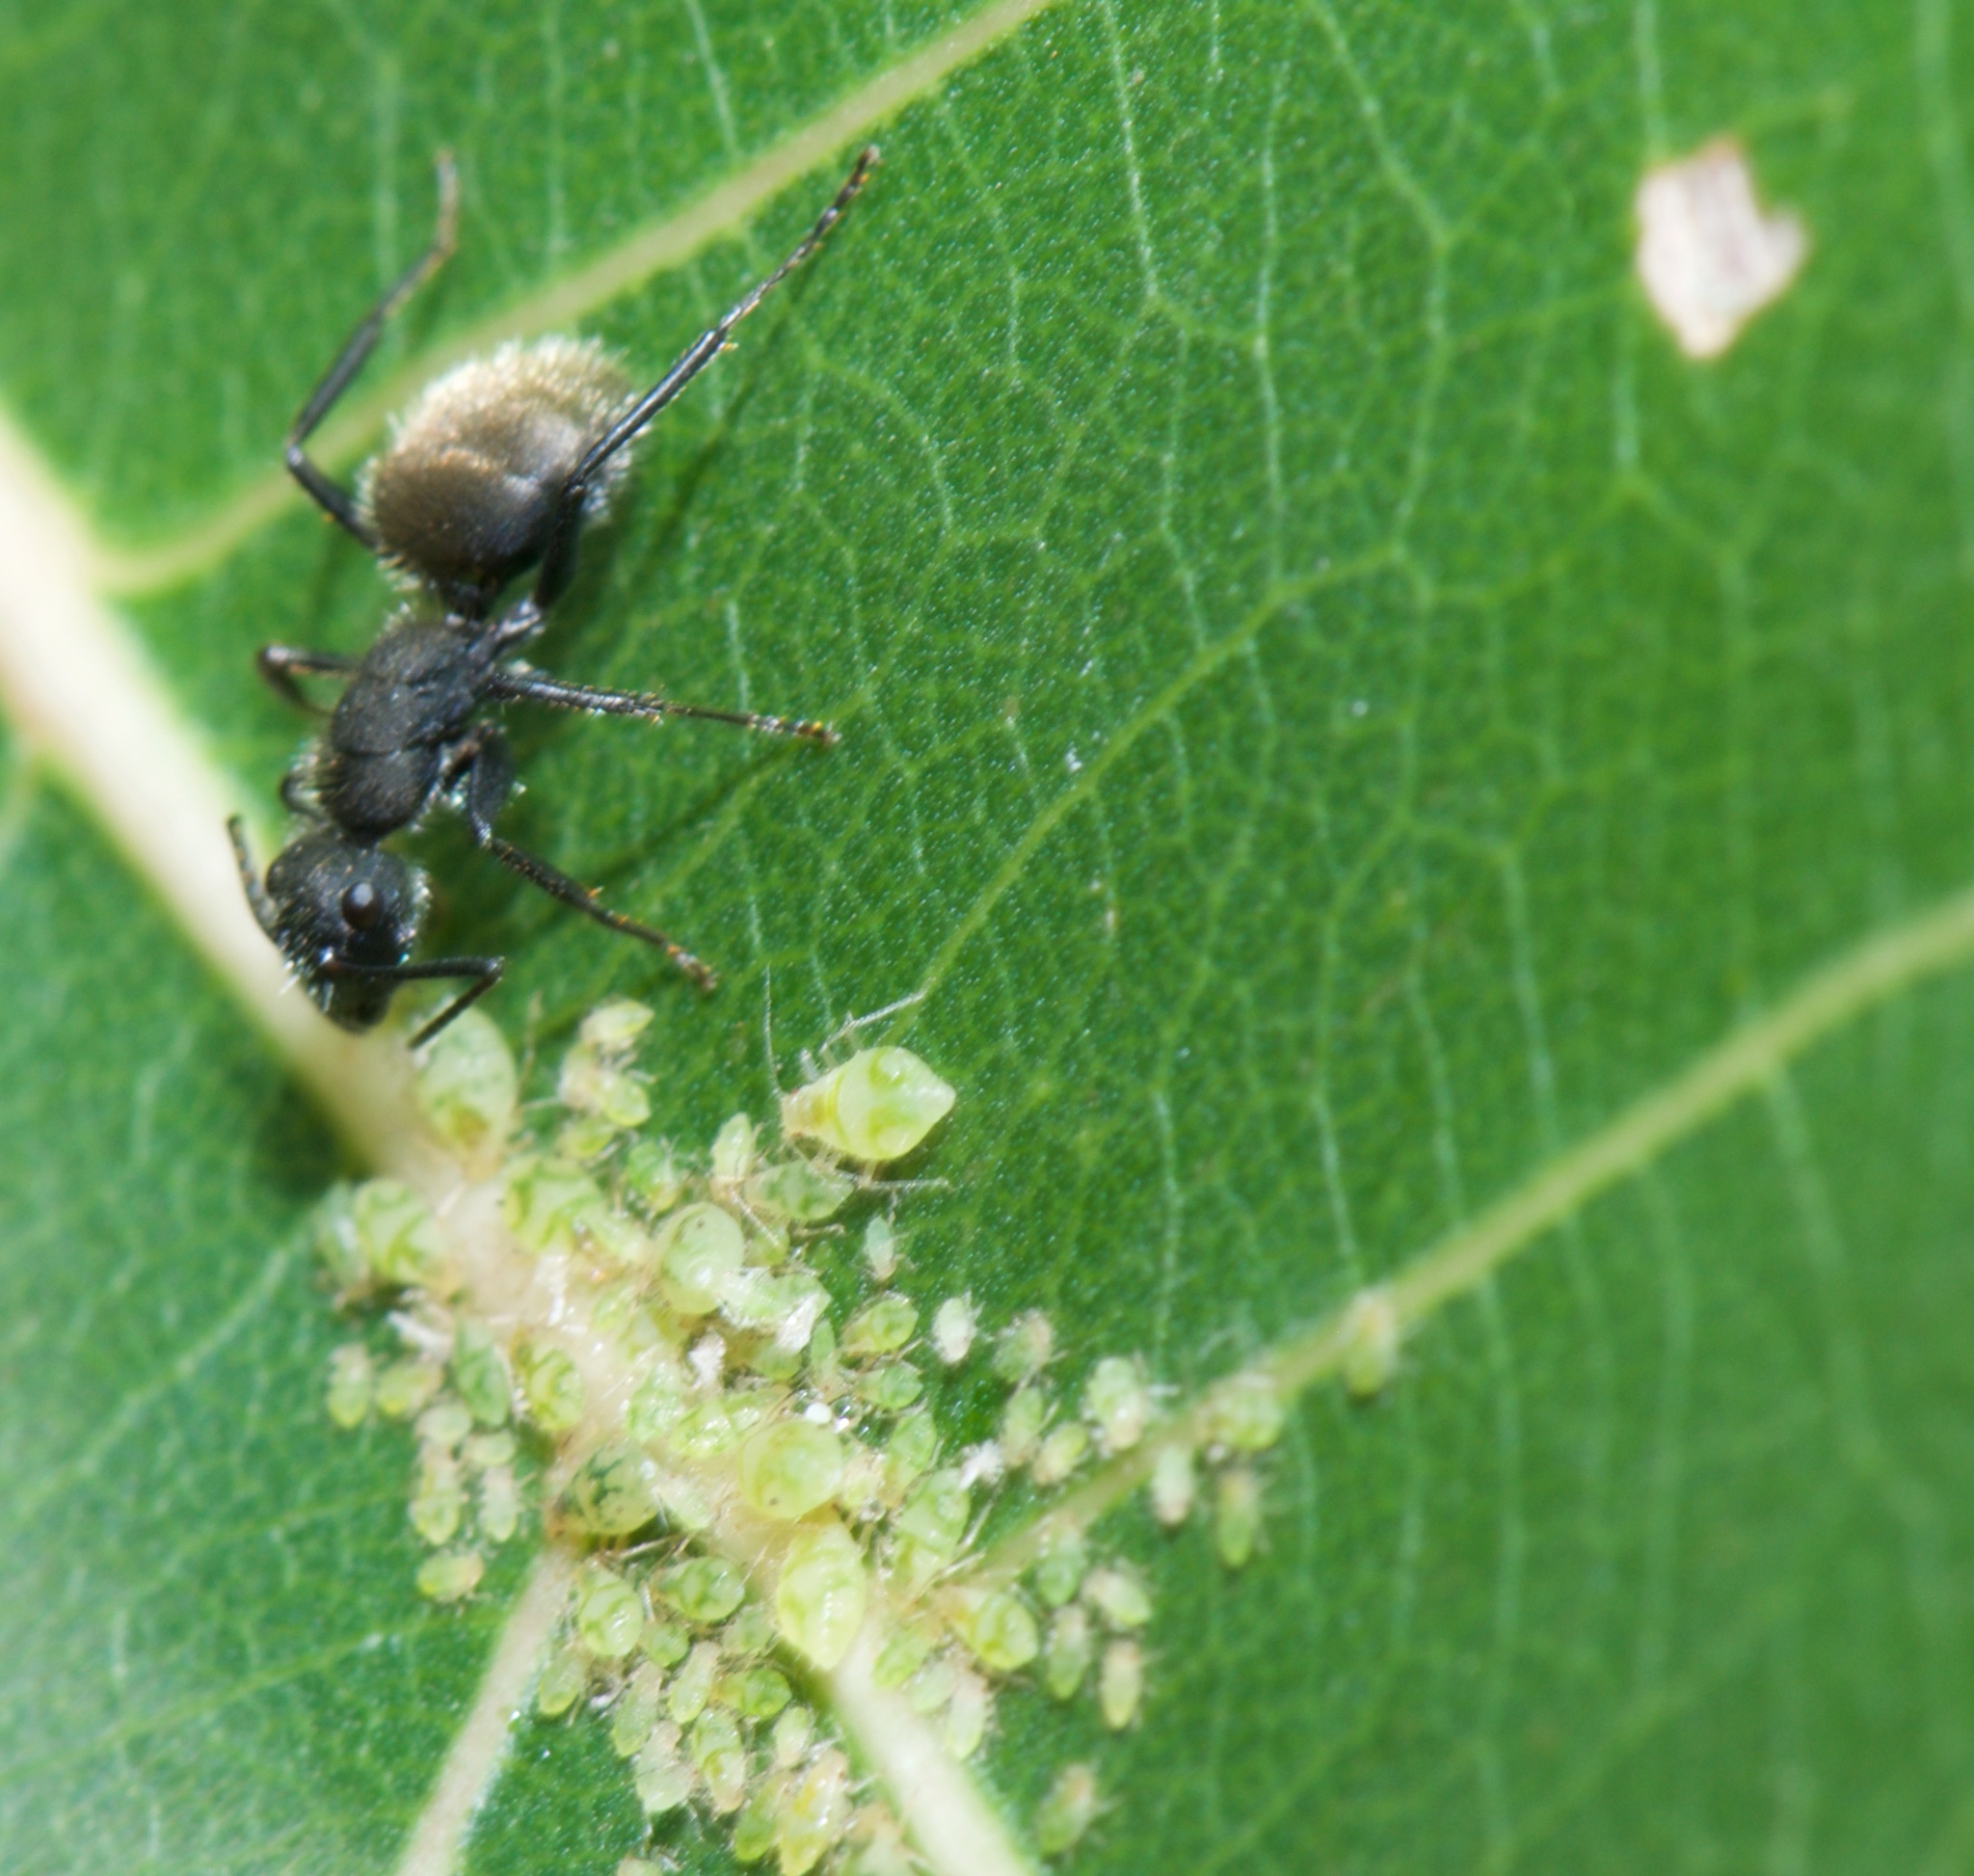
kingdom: Animalia
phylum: Arthropoda
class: Insecta
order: Hymenoptera
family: Formicidae
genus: Camponotus
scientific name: Camponotus mus
